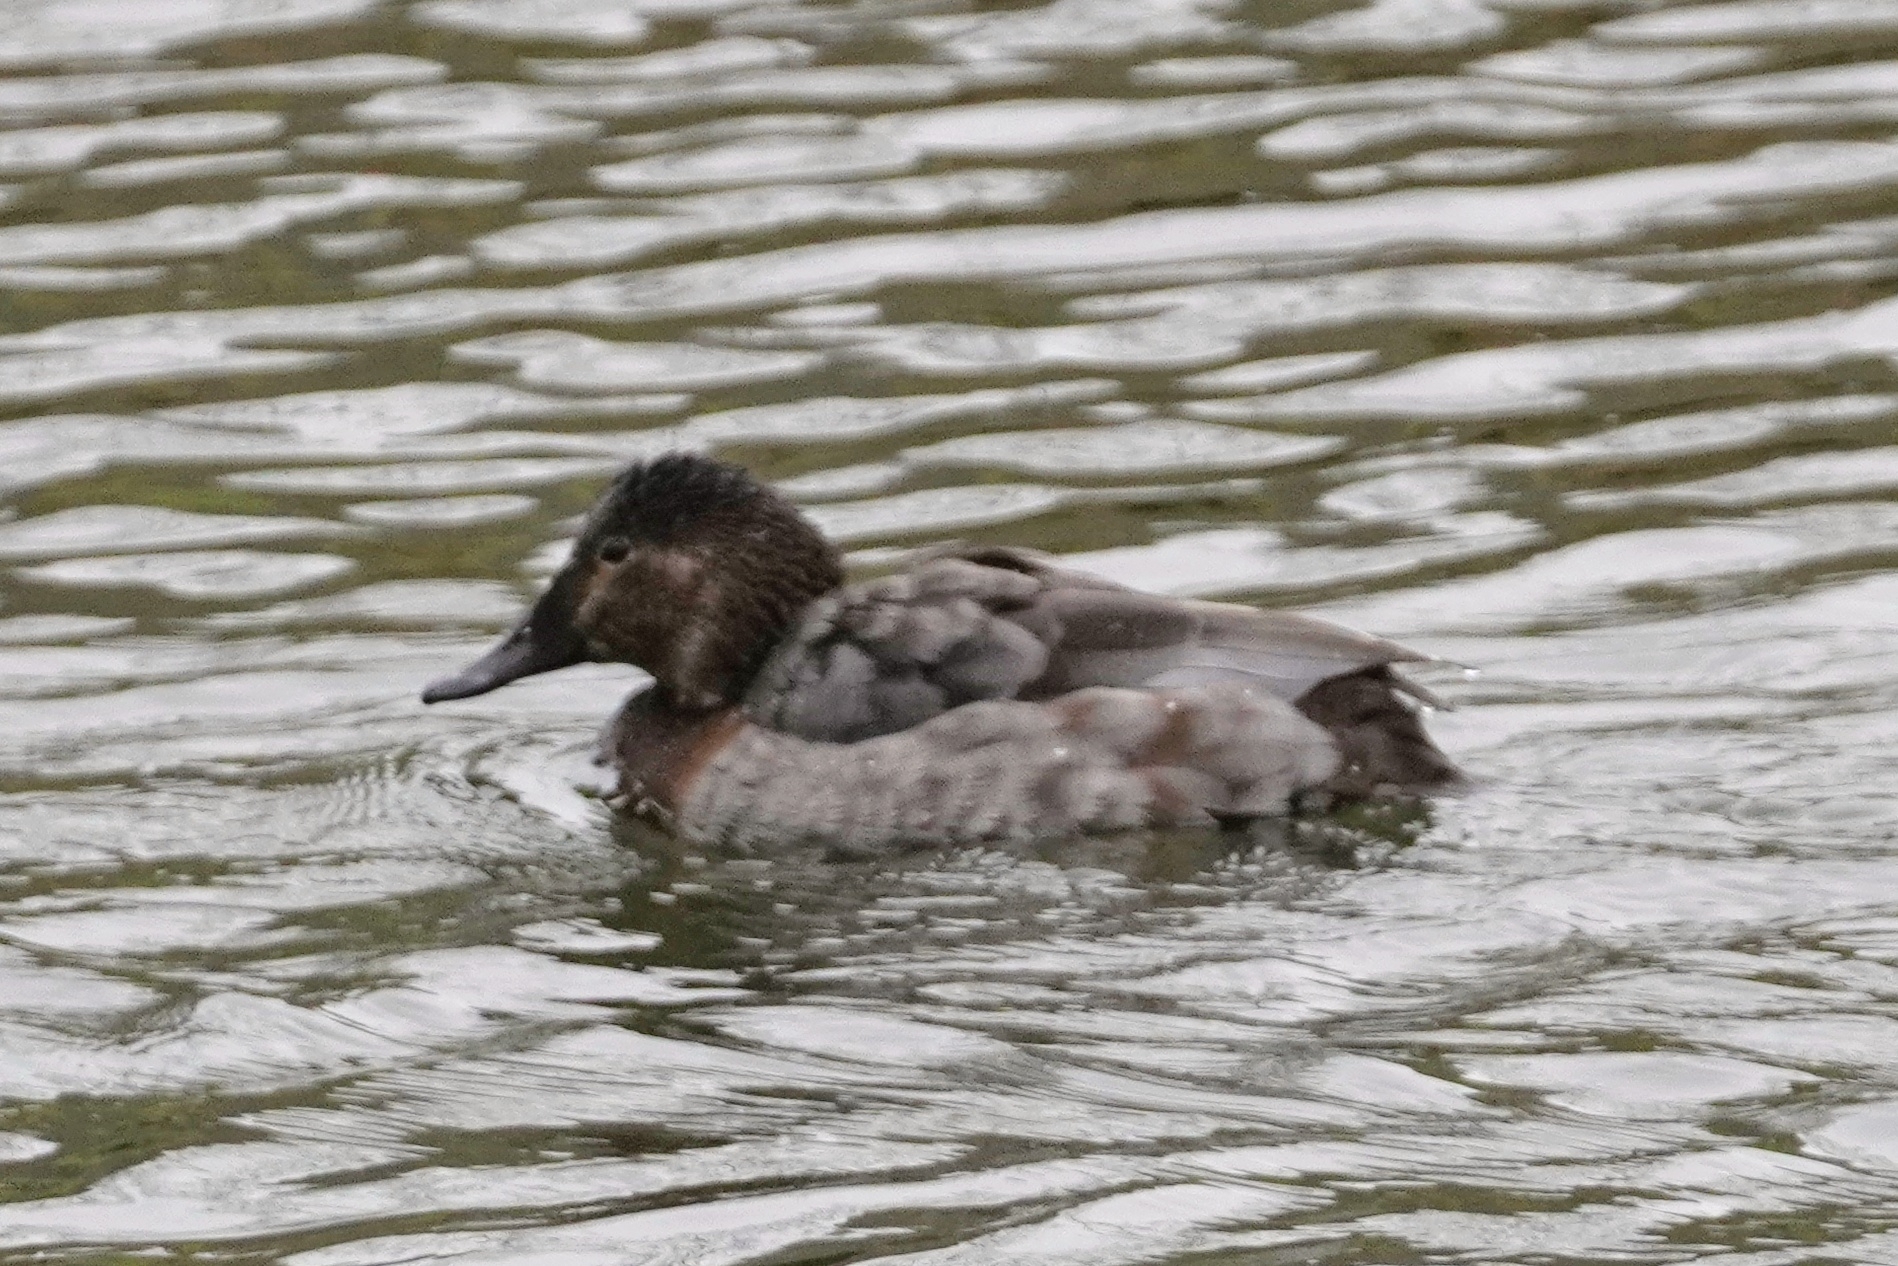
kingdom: Animalia
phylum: Chordata
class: Aves
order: Anseriformes
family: Anatidae
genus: Aythya
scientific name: Aythya ferina
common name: Common pochard
